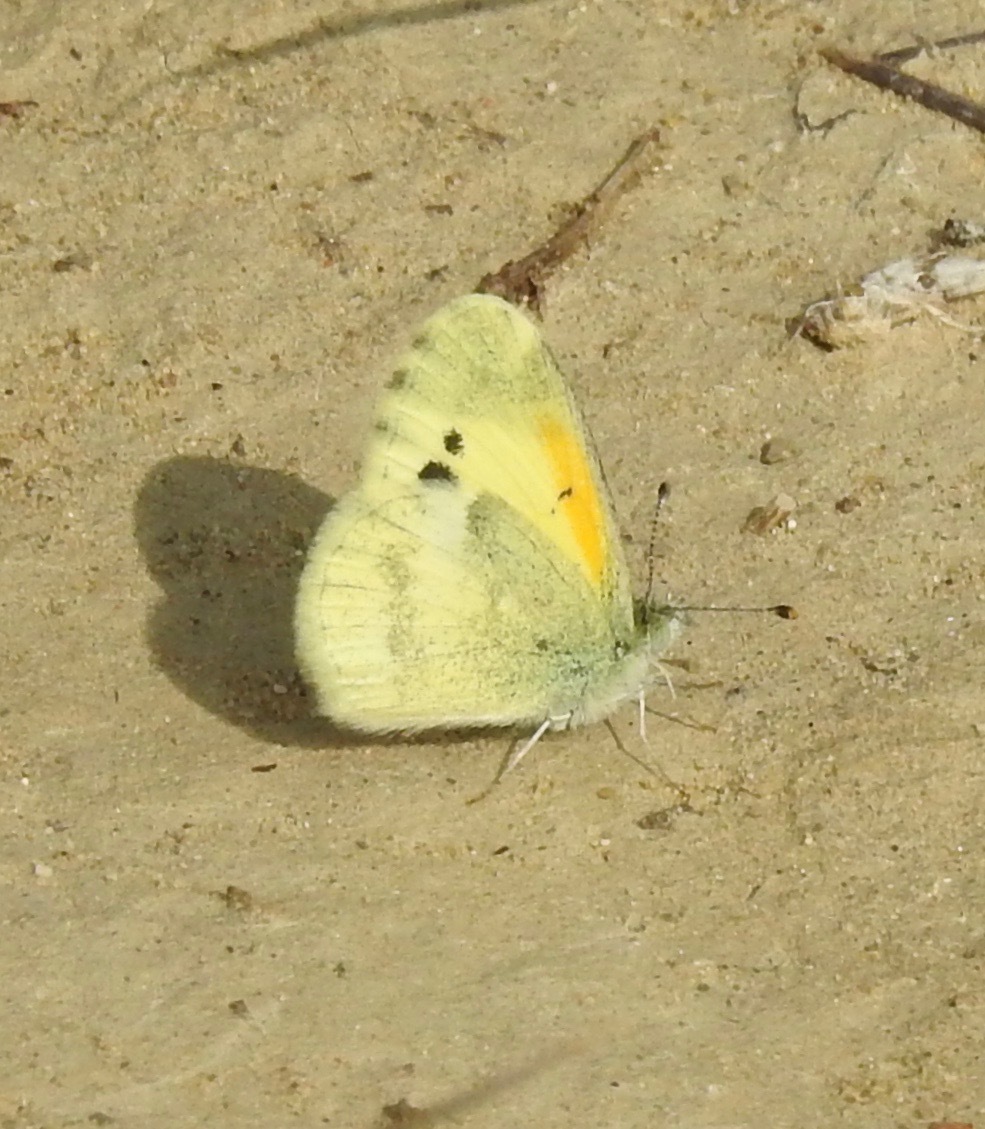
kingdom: Animalia
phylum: Arthropoda
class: Insecta
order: Lepidoptera
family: Pieridae
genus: Nathalis
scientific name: Nathalis iole
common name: Dainty sulphur
